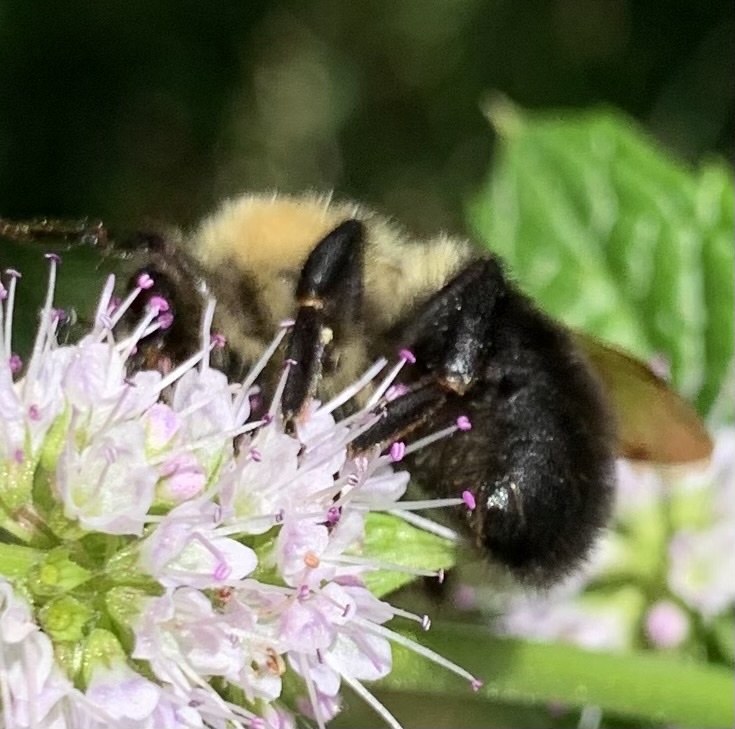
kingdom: Animalia
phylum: Arthropoda
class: Insecta
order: Hymenoptera
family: Apidae
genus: Bombus
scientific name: Bombus bimaculatus
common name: Two-spotted bumble bee
